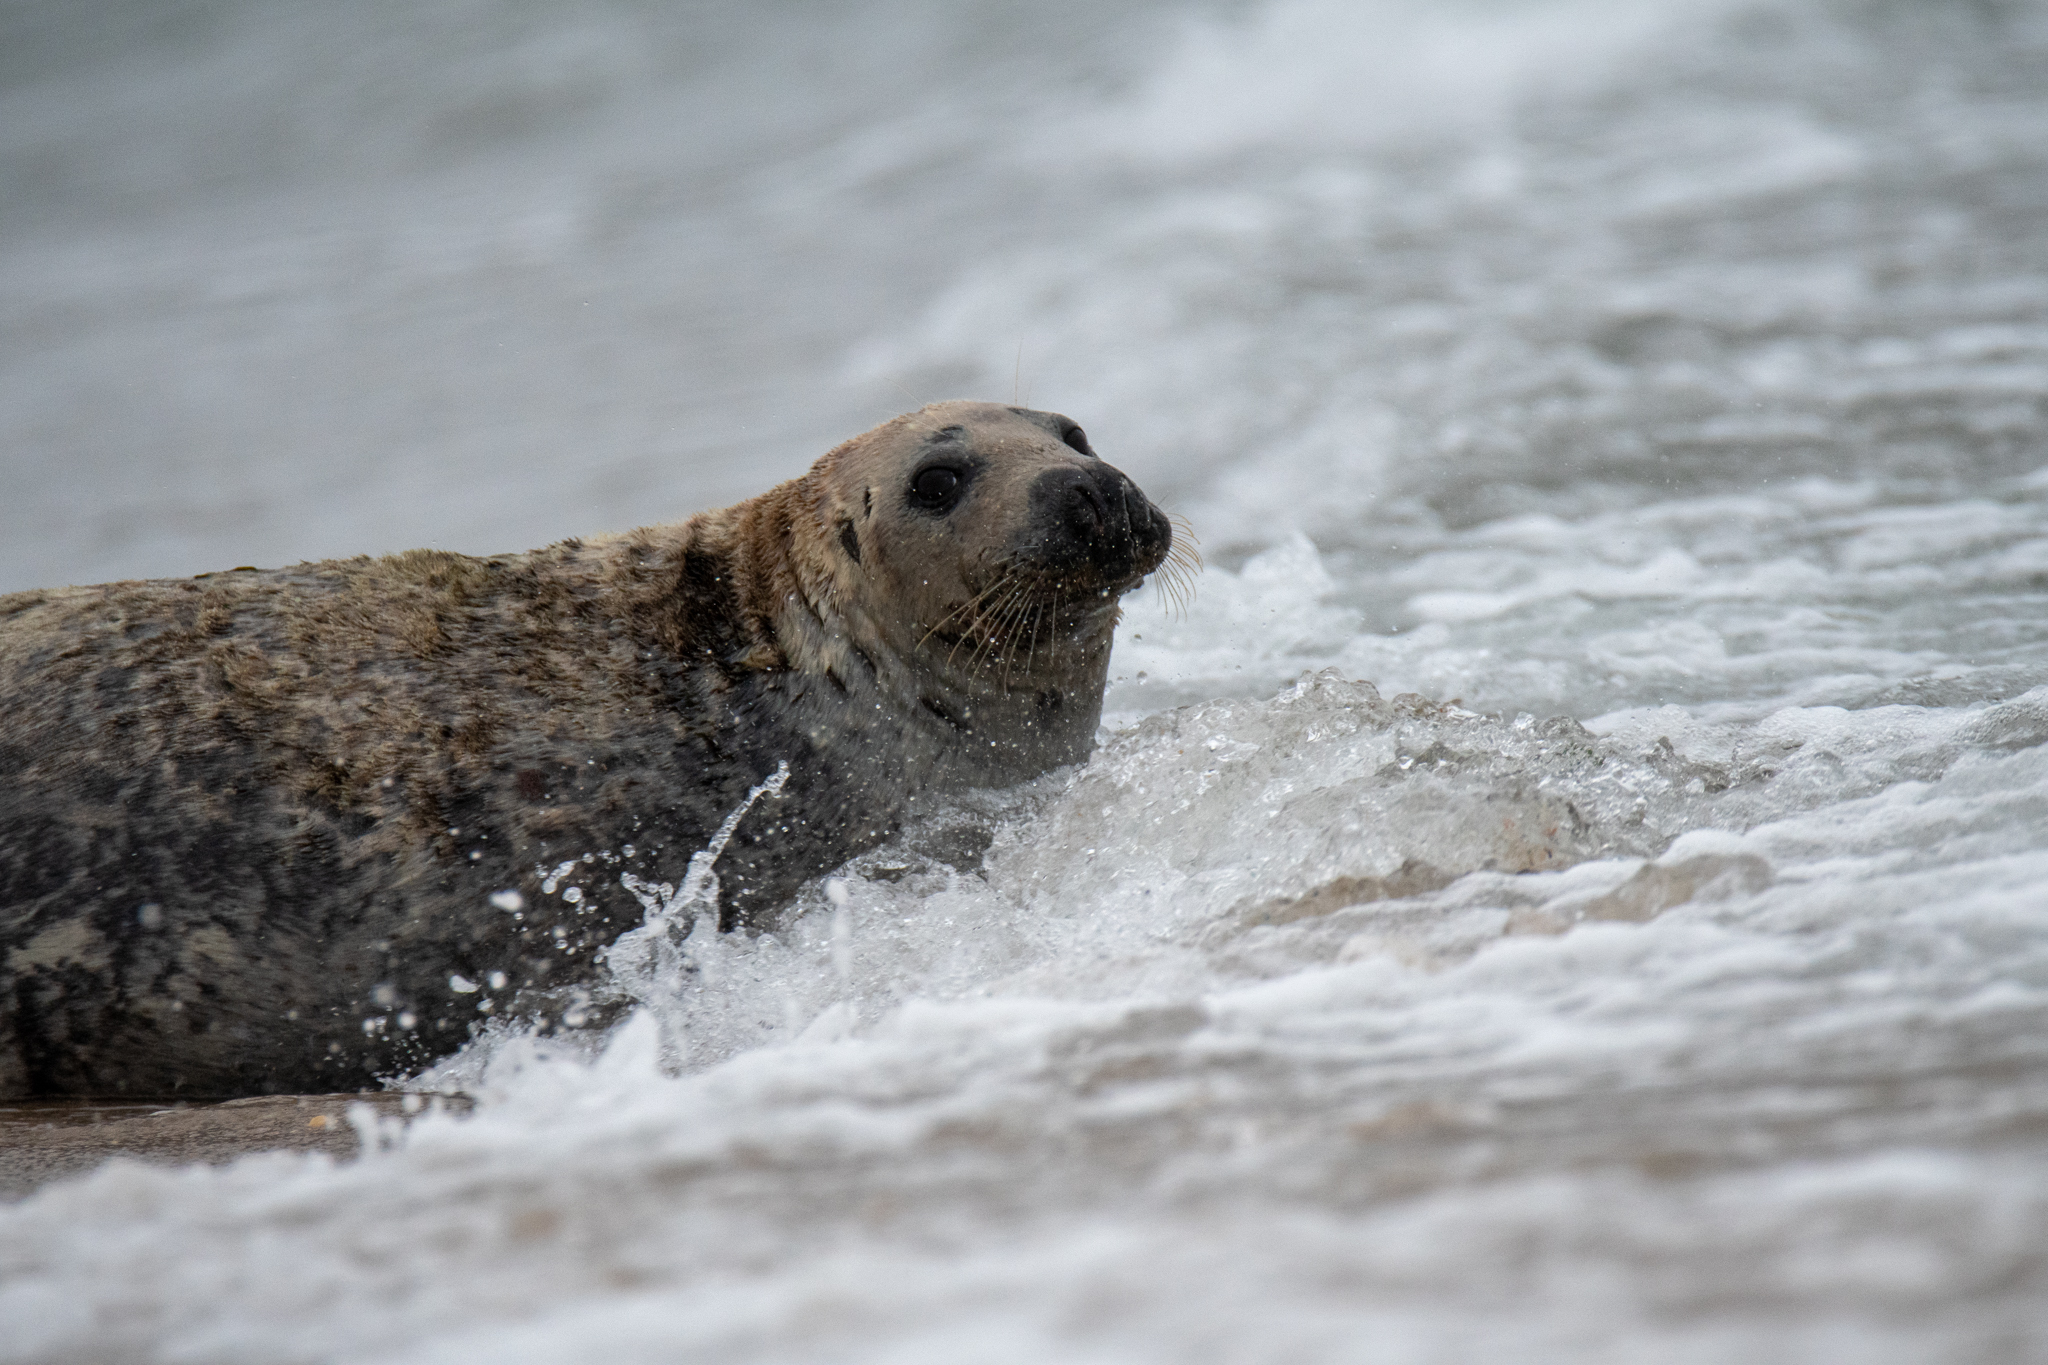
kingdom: Animalia
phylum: Chordata
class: Mammalia
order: Carnivora
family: Phocidae
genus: Halichoerus
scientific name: Halichoerus grypus
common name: Grey seal
